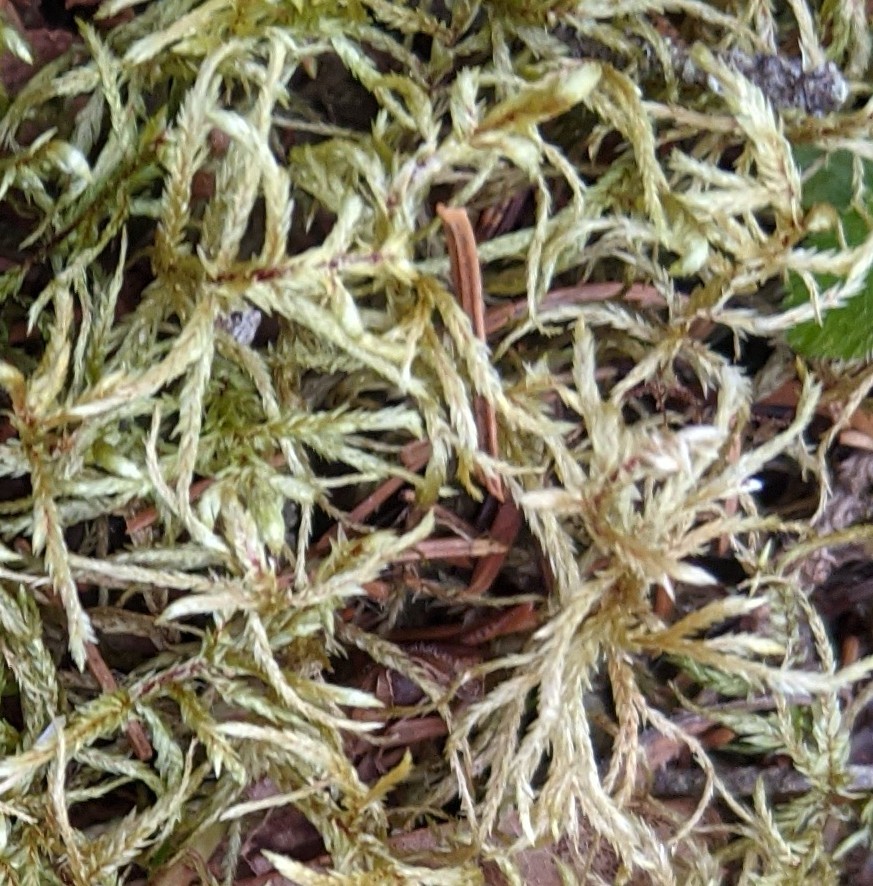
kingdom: Plantae
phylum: Bryophyta
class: Bryopsida
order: Hypnales
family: Hylocomiaceae
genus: Pleurozium
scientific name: Pleurozium schreberi
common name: Red-stemmed feather moss
